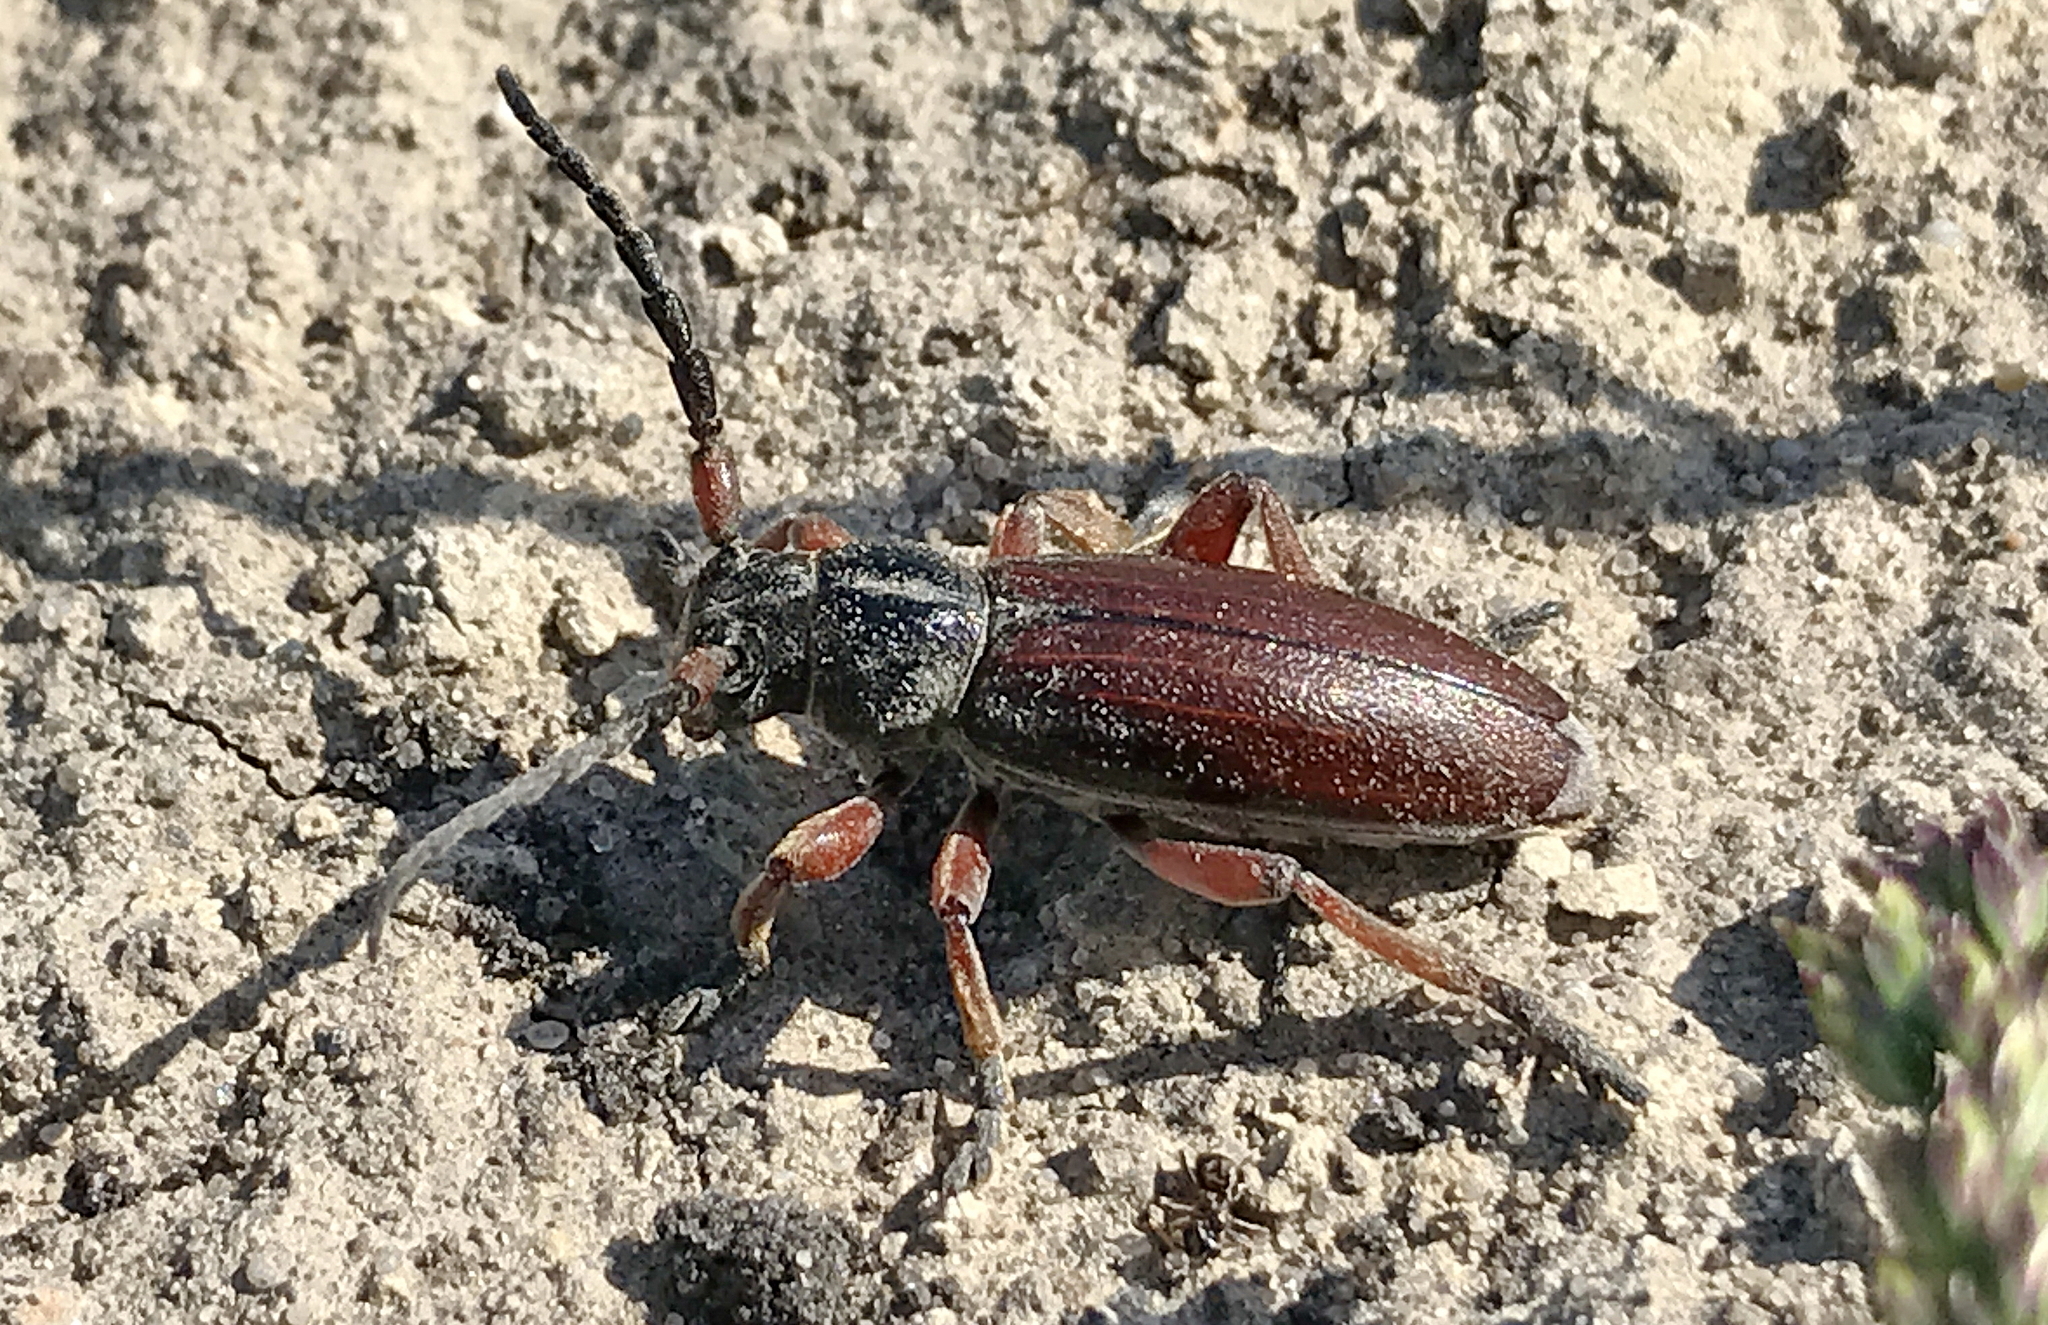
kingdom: Animalia
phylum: Arthropoda
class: Insecta
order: Coleoptera
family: Cerambycidae
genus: Dorcadion
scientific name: Dorcadion fulvum
